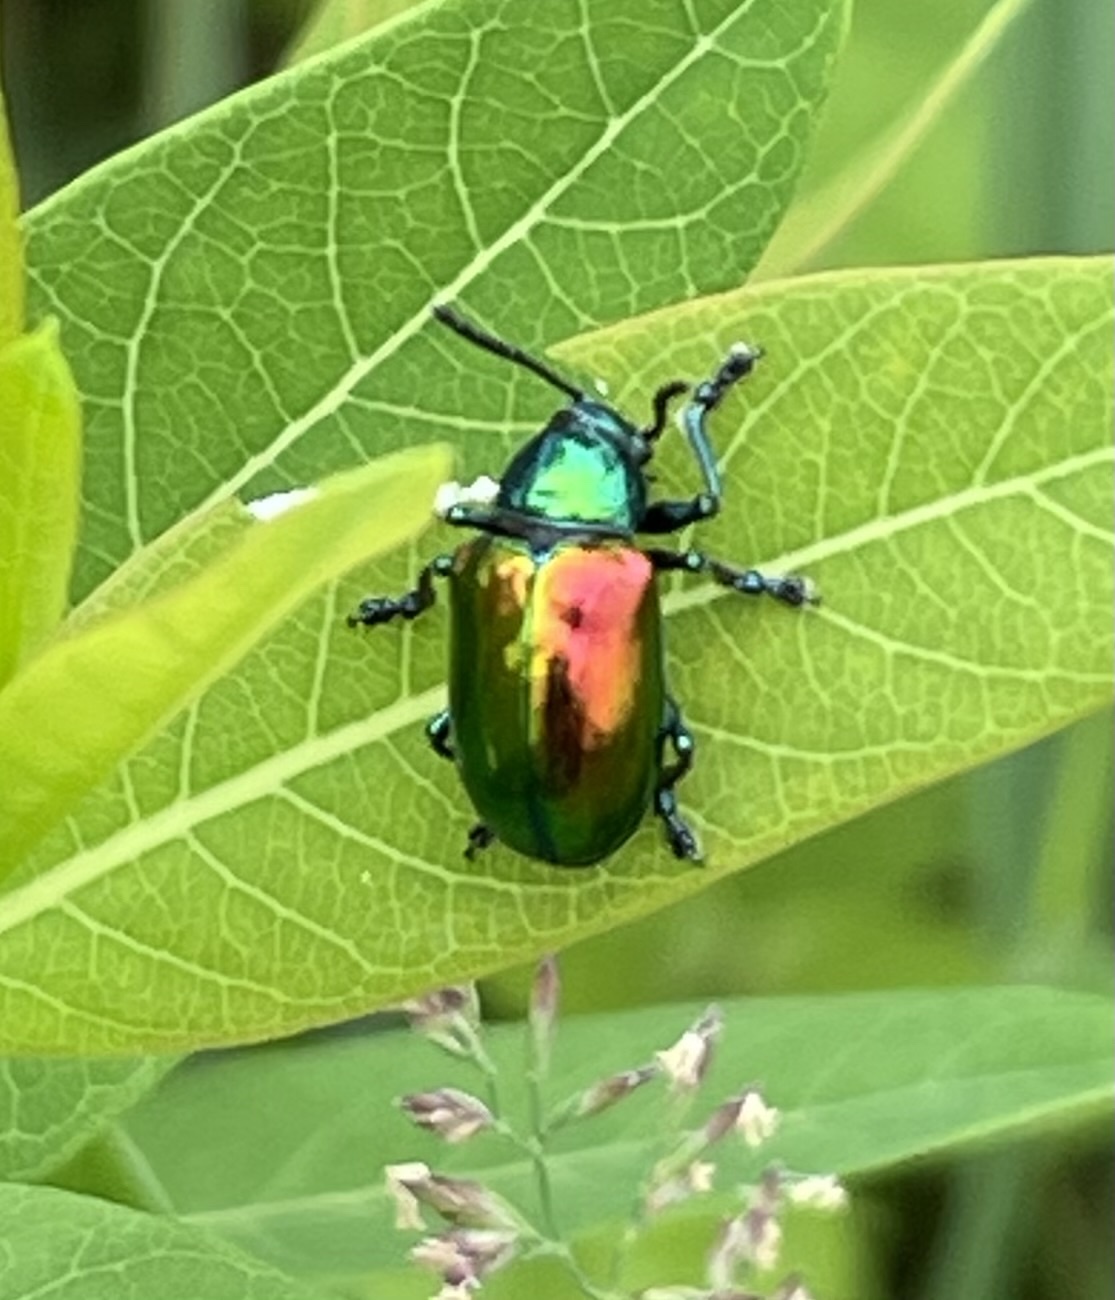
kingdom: Animalia
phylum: Arthropoda
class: Insecta
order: Coleoptera
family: Chrysomelidae
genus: Chrysochus
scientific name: Chrysochus auratus
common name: Dogbane leaf beetle
